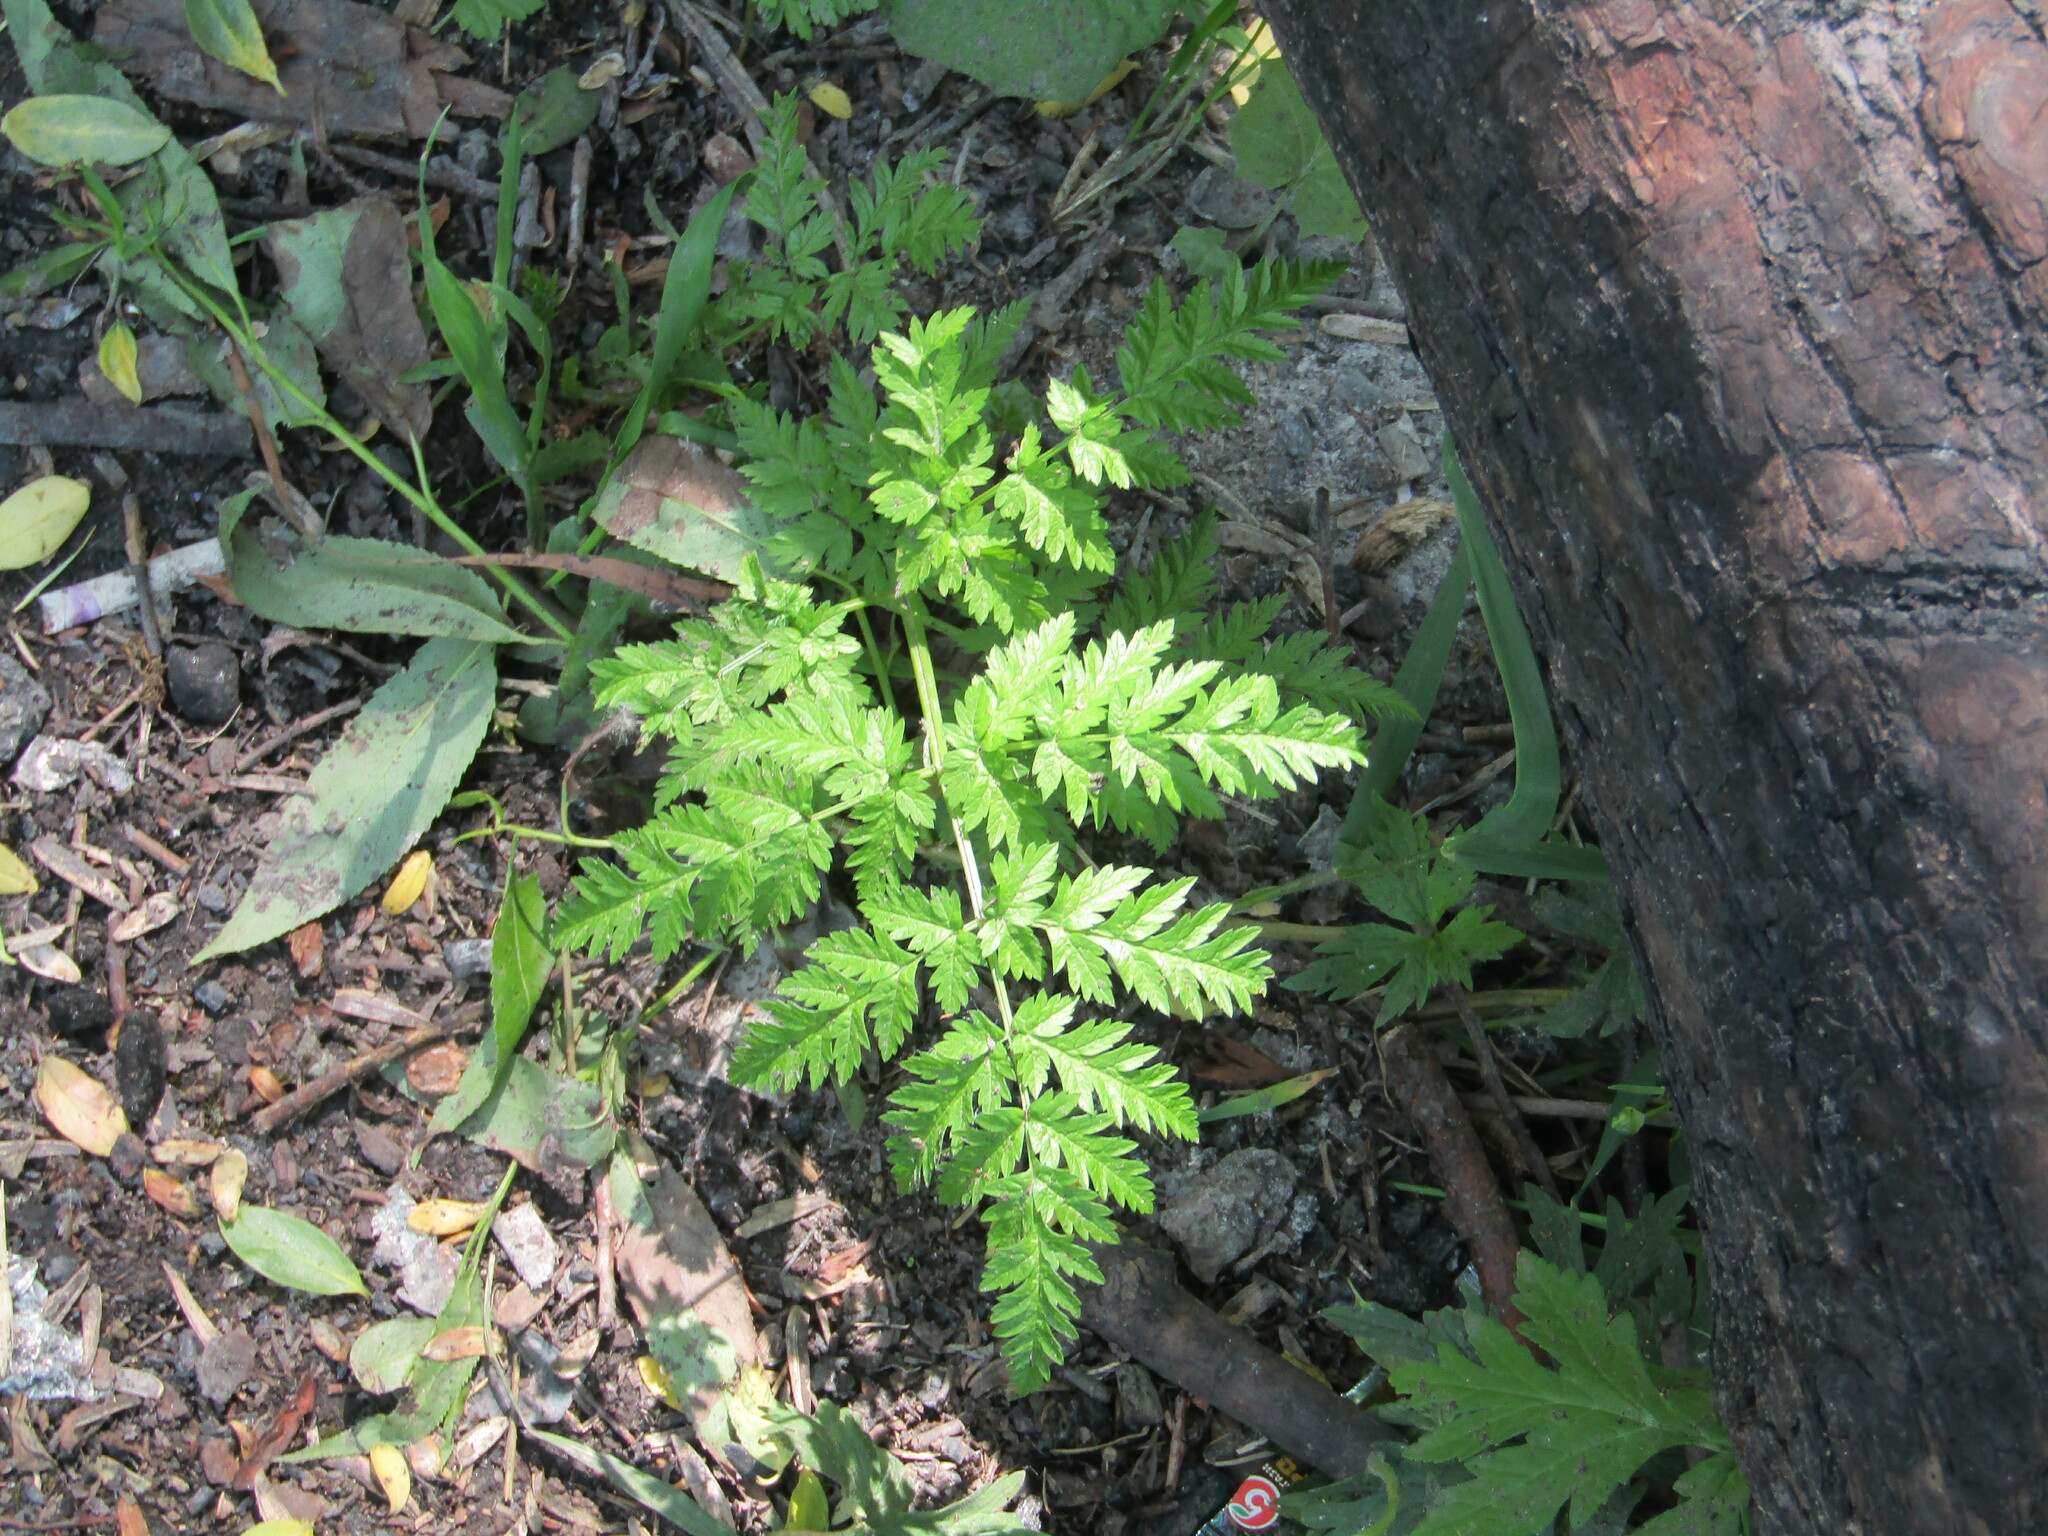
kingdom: Plantae
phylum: Tracheophyta
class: Magnoliopsida
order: Apiales
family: Apiaceae
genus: Anthriscus
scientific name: Anthriscus sylvestris
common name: Cow parsley
